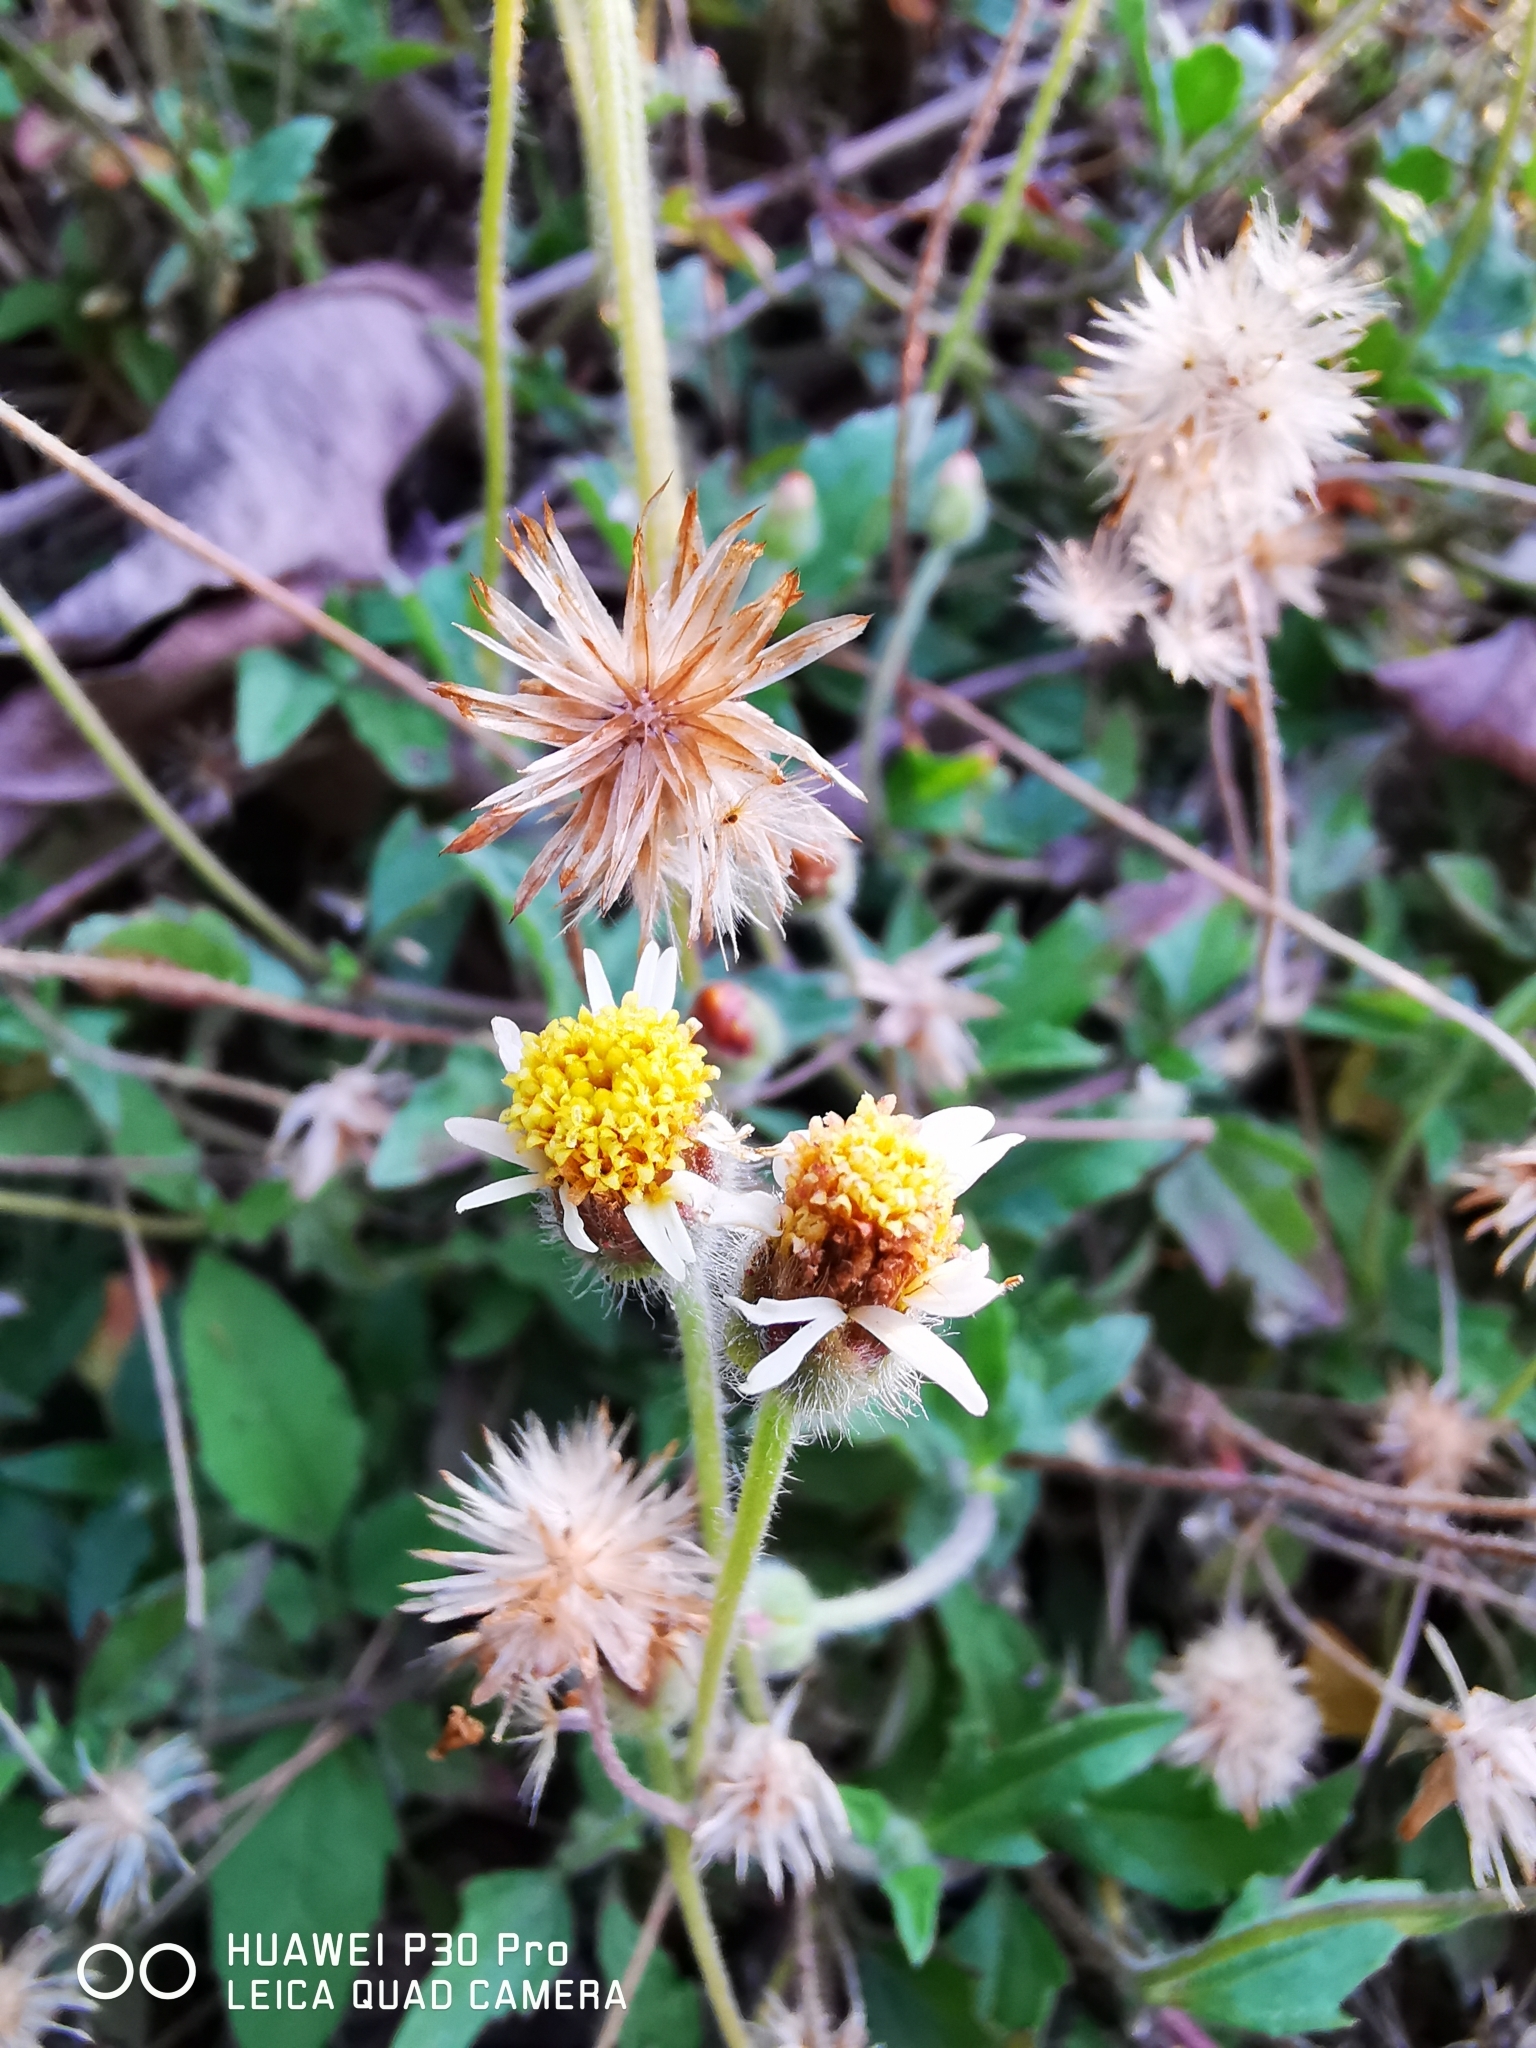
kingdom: Plantae
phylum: Tracheophyta
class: Magnoliopsida
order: Asterales
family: Asteraceae
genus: Tridax
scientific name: Tridax procumbens
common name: Coatbuttons
